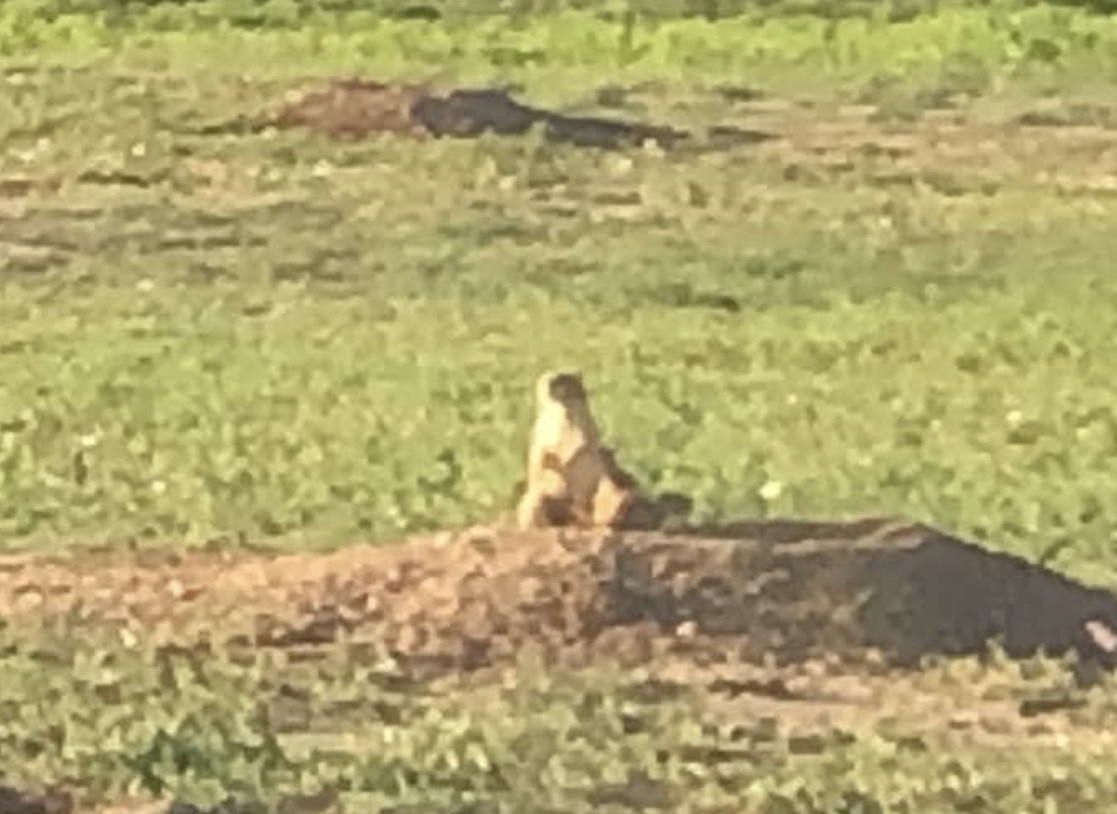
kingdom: Animalia
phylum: Chordata
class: Mammalia
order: Rodentia
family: Sciuridae
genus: Cynomys
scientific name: Cynomys ludovicianus
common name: Black-tailed prairie dog
